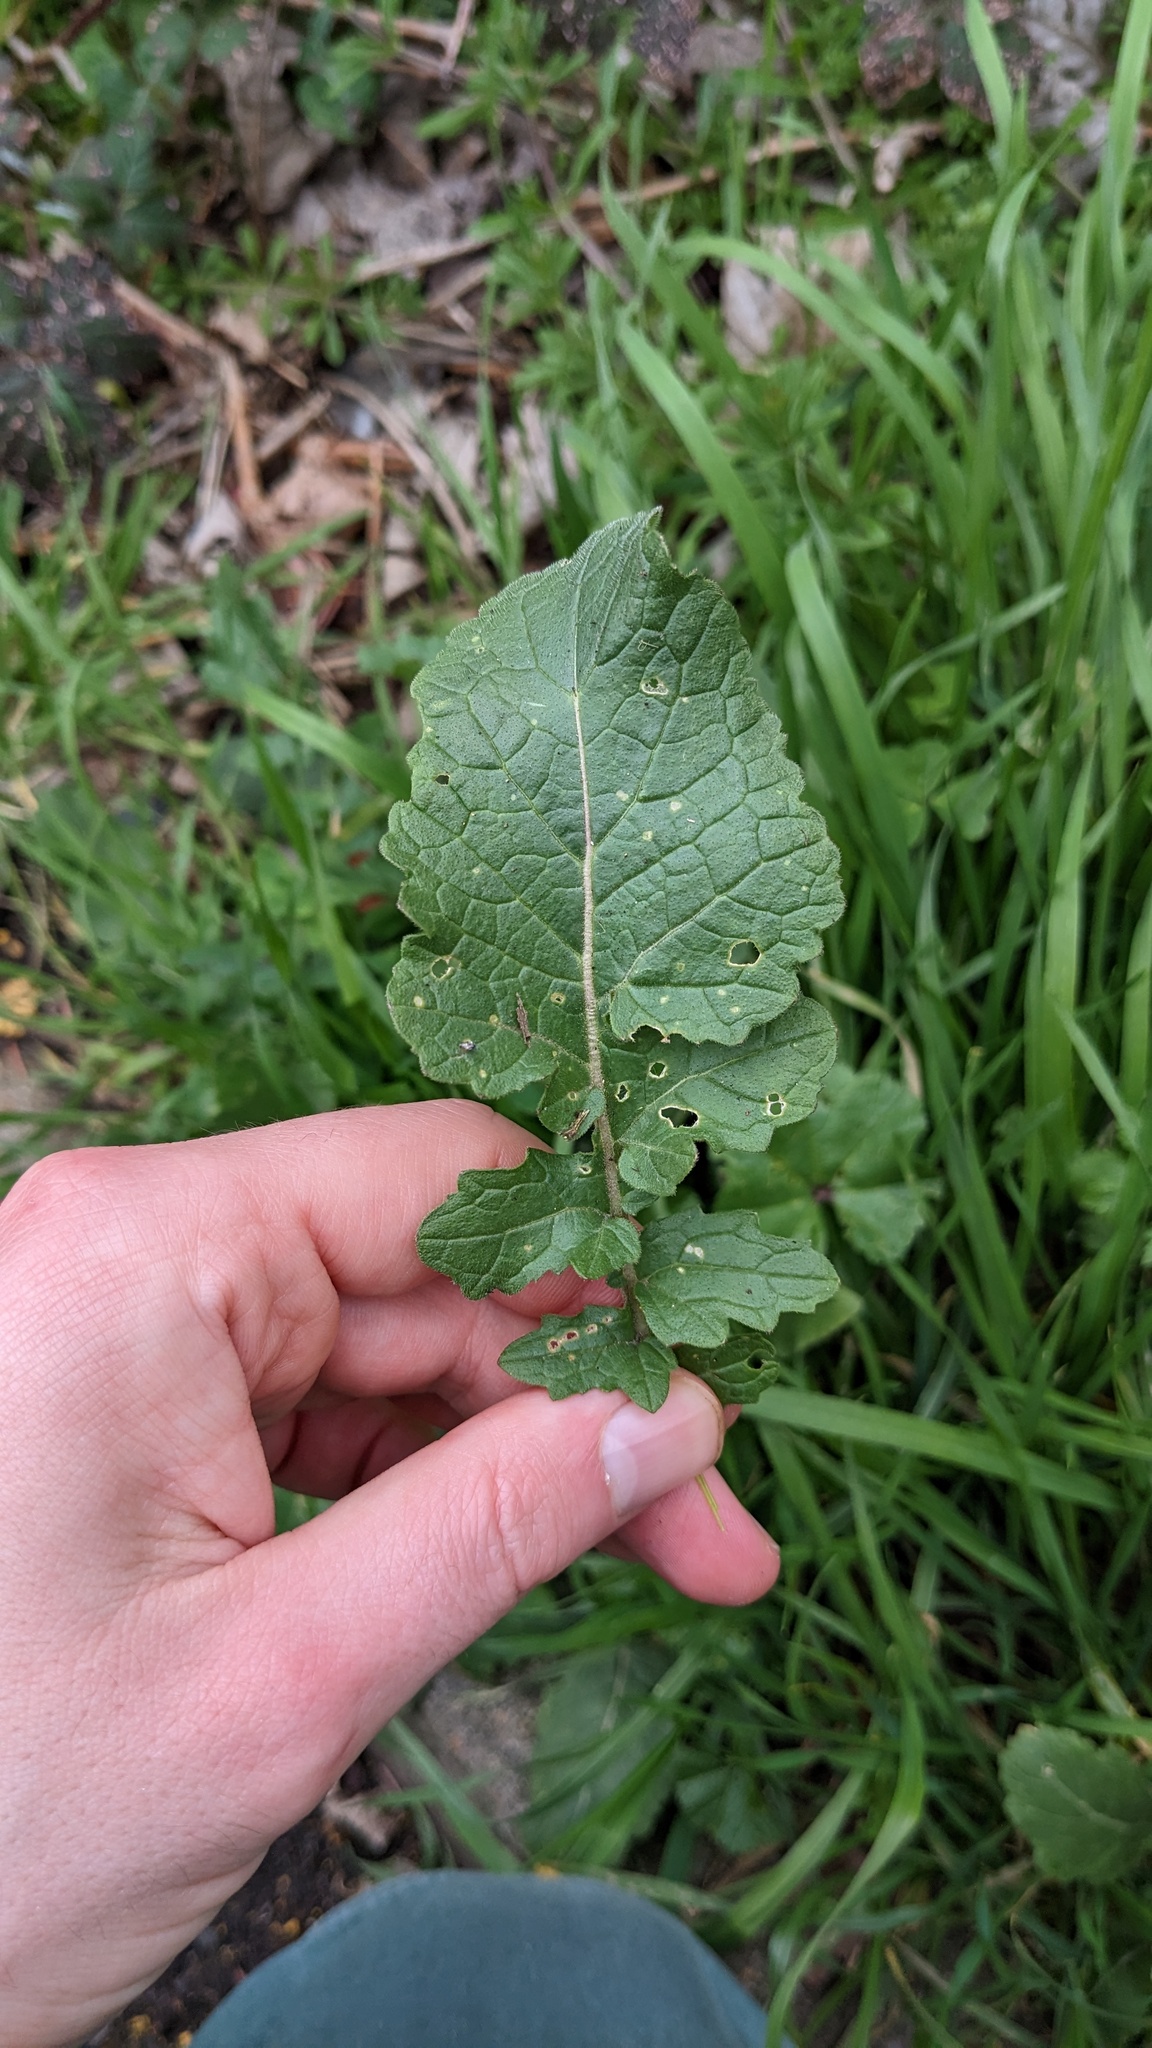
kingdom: Plantae
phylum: Tracheophyta
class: Magnoliopsida
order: Brassicales
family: Brassicaceae
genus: Hirschfeldia
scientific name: Hirschfeldia incana
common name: Hoary mustard
